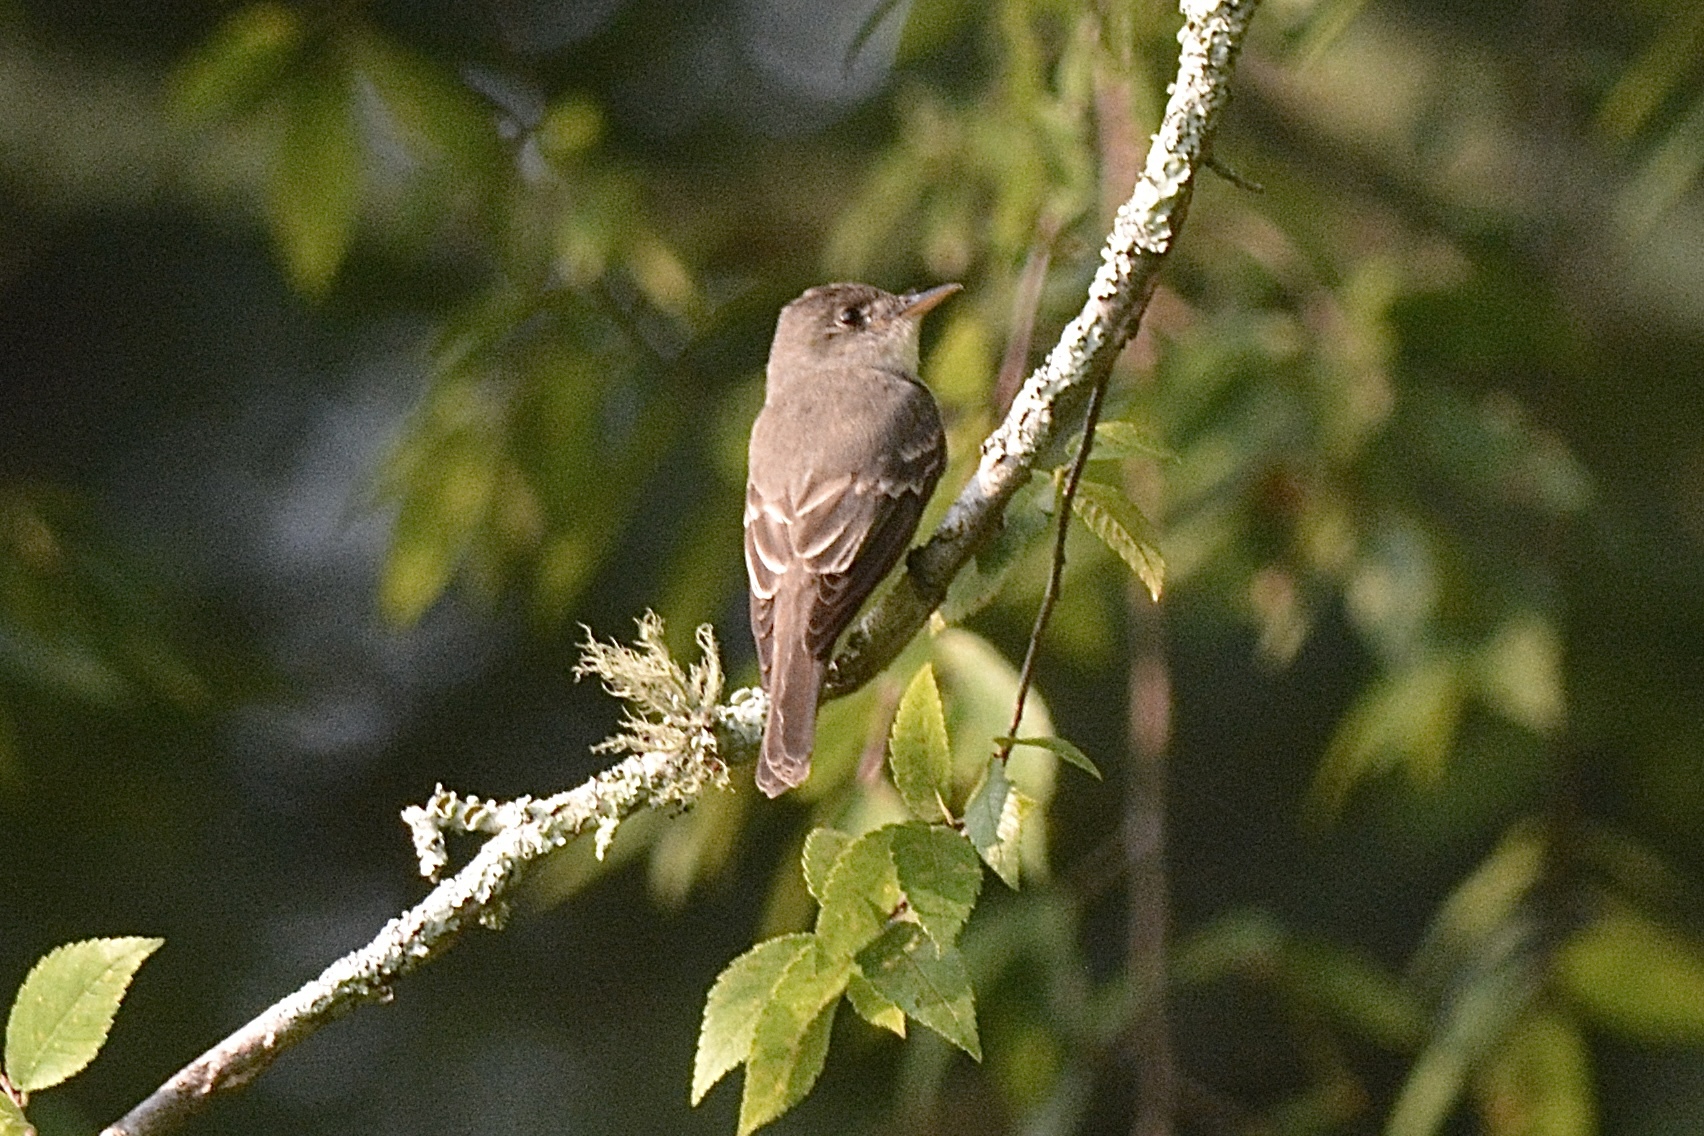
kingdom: Animalia
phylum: Chordata
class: Aves
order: Passeriformes
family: Tyrannidae
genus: Contopus
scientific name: Contopus virens
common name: Eastern wood-pewee
